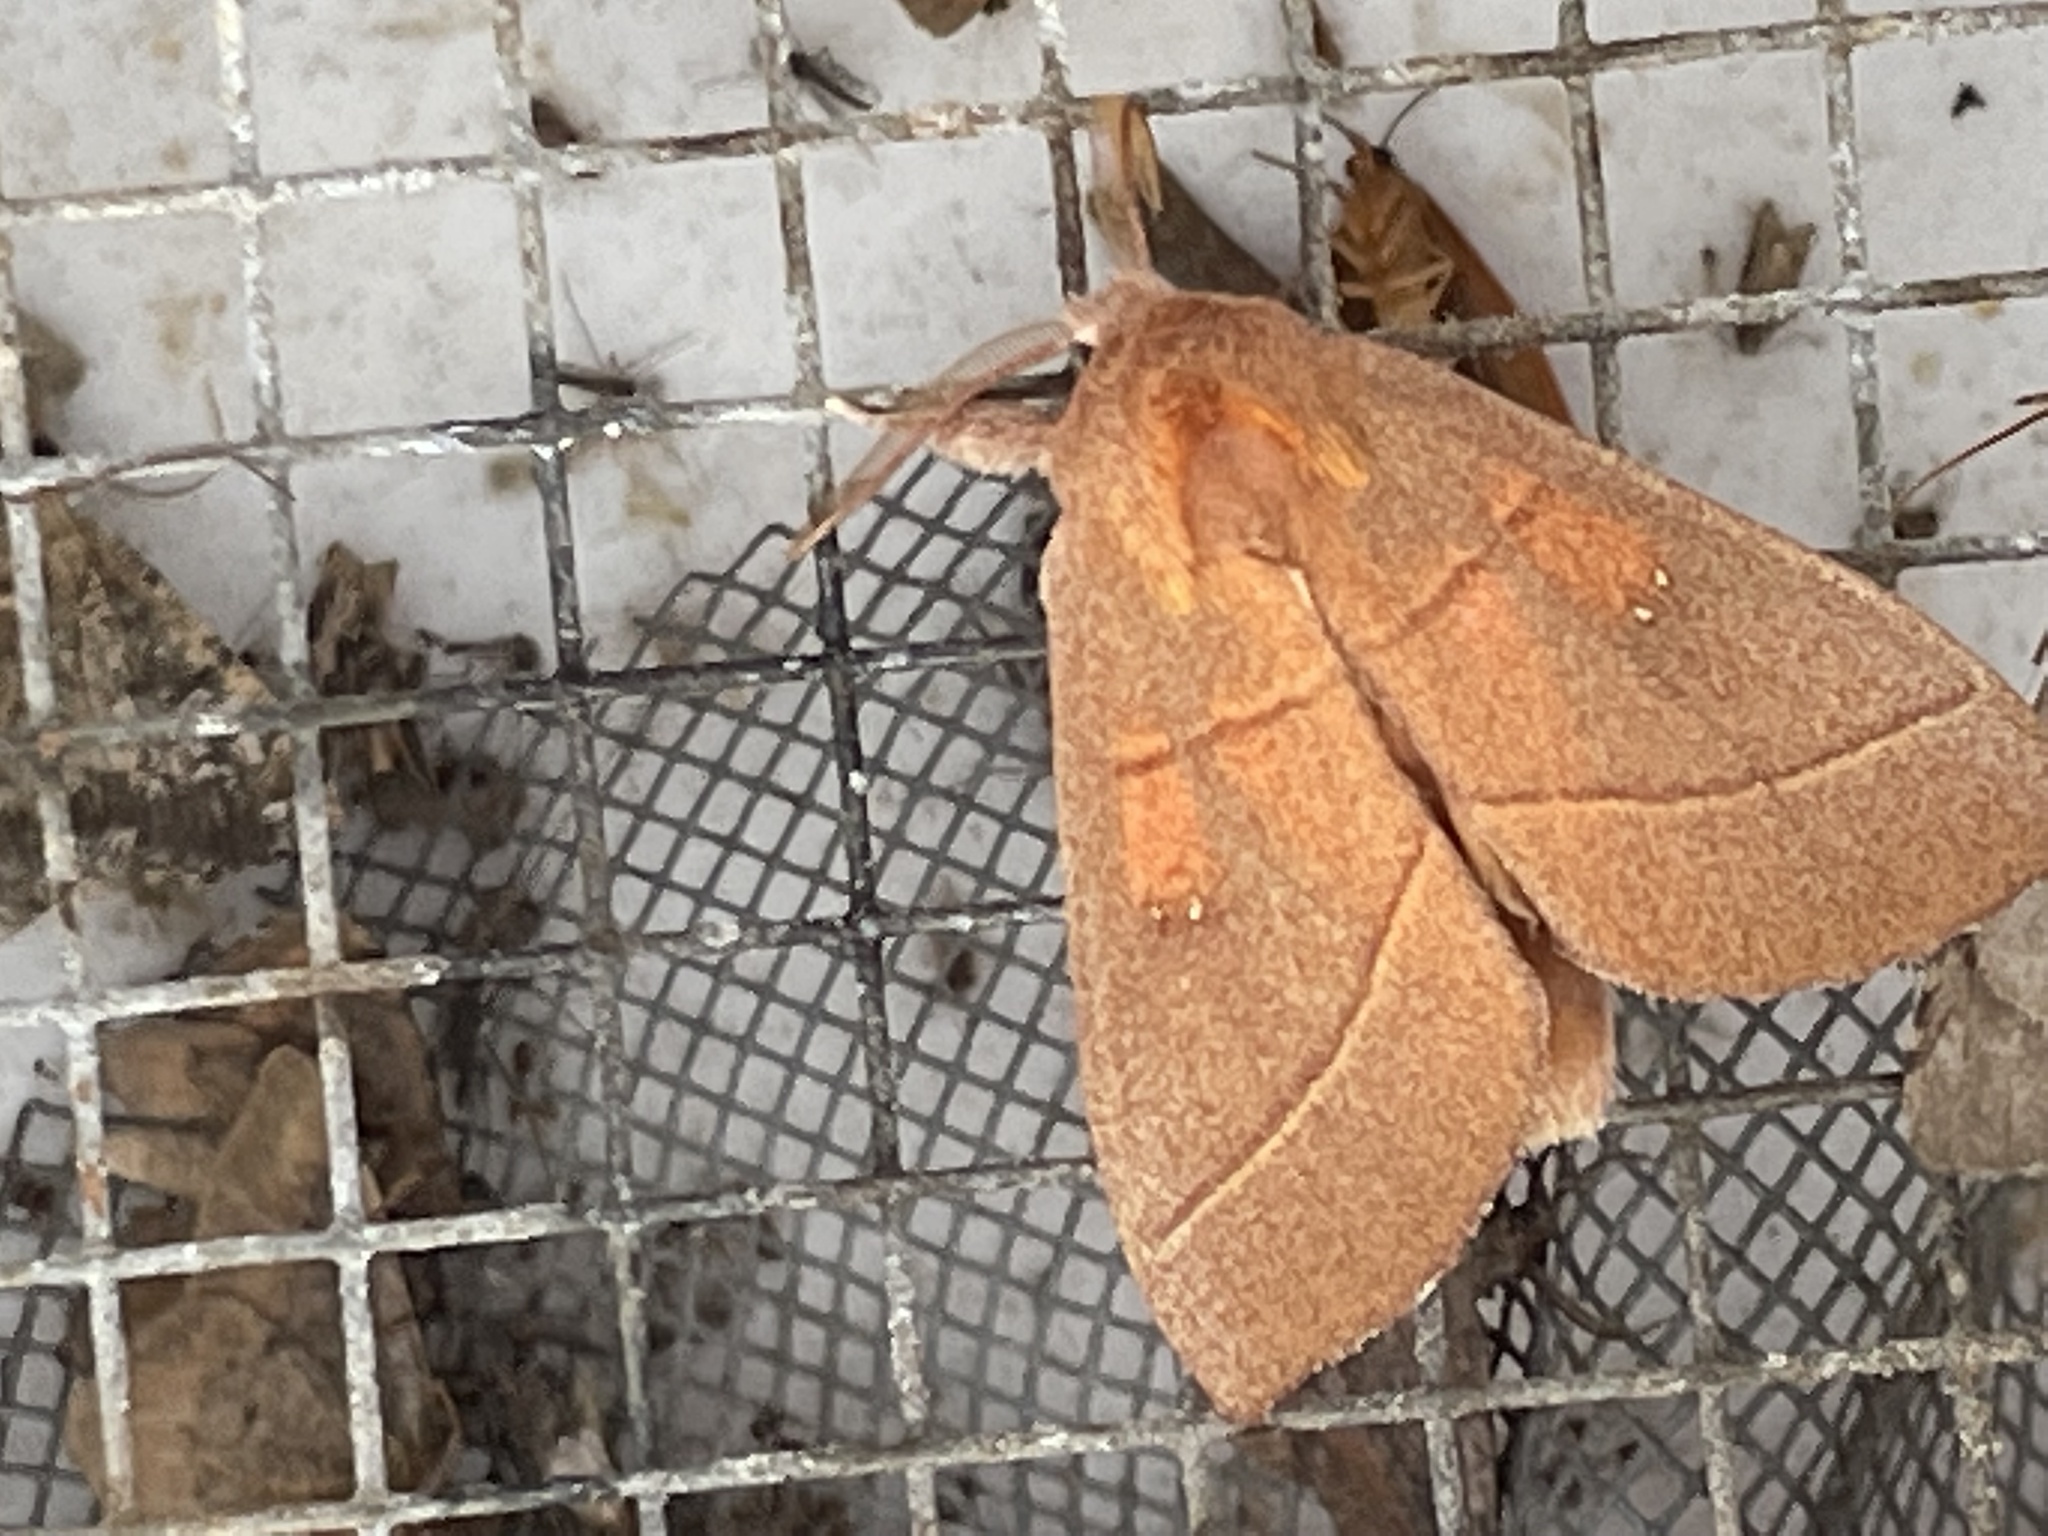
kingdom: Animalia
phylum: Arthropoda
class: Insecta
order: Lepidoptera
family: Notodontidae
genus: Nadata
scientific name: Nadata gibbosa
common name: White-dotted prominent
